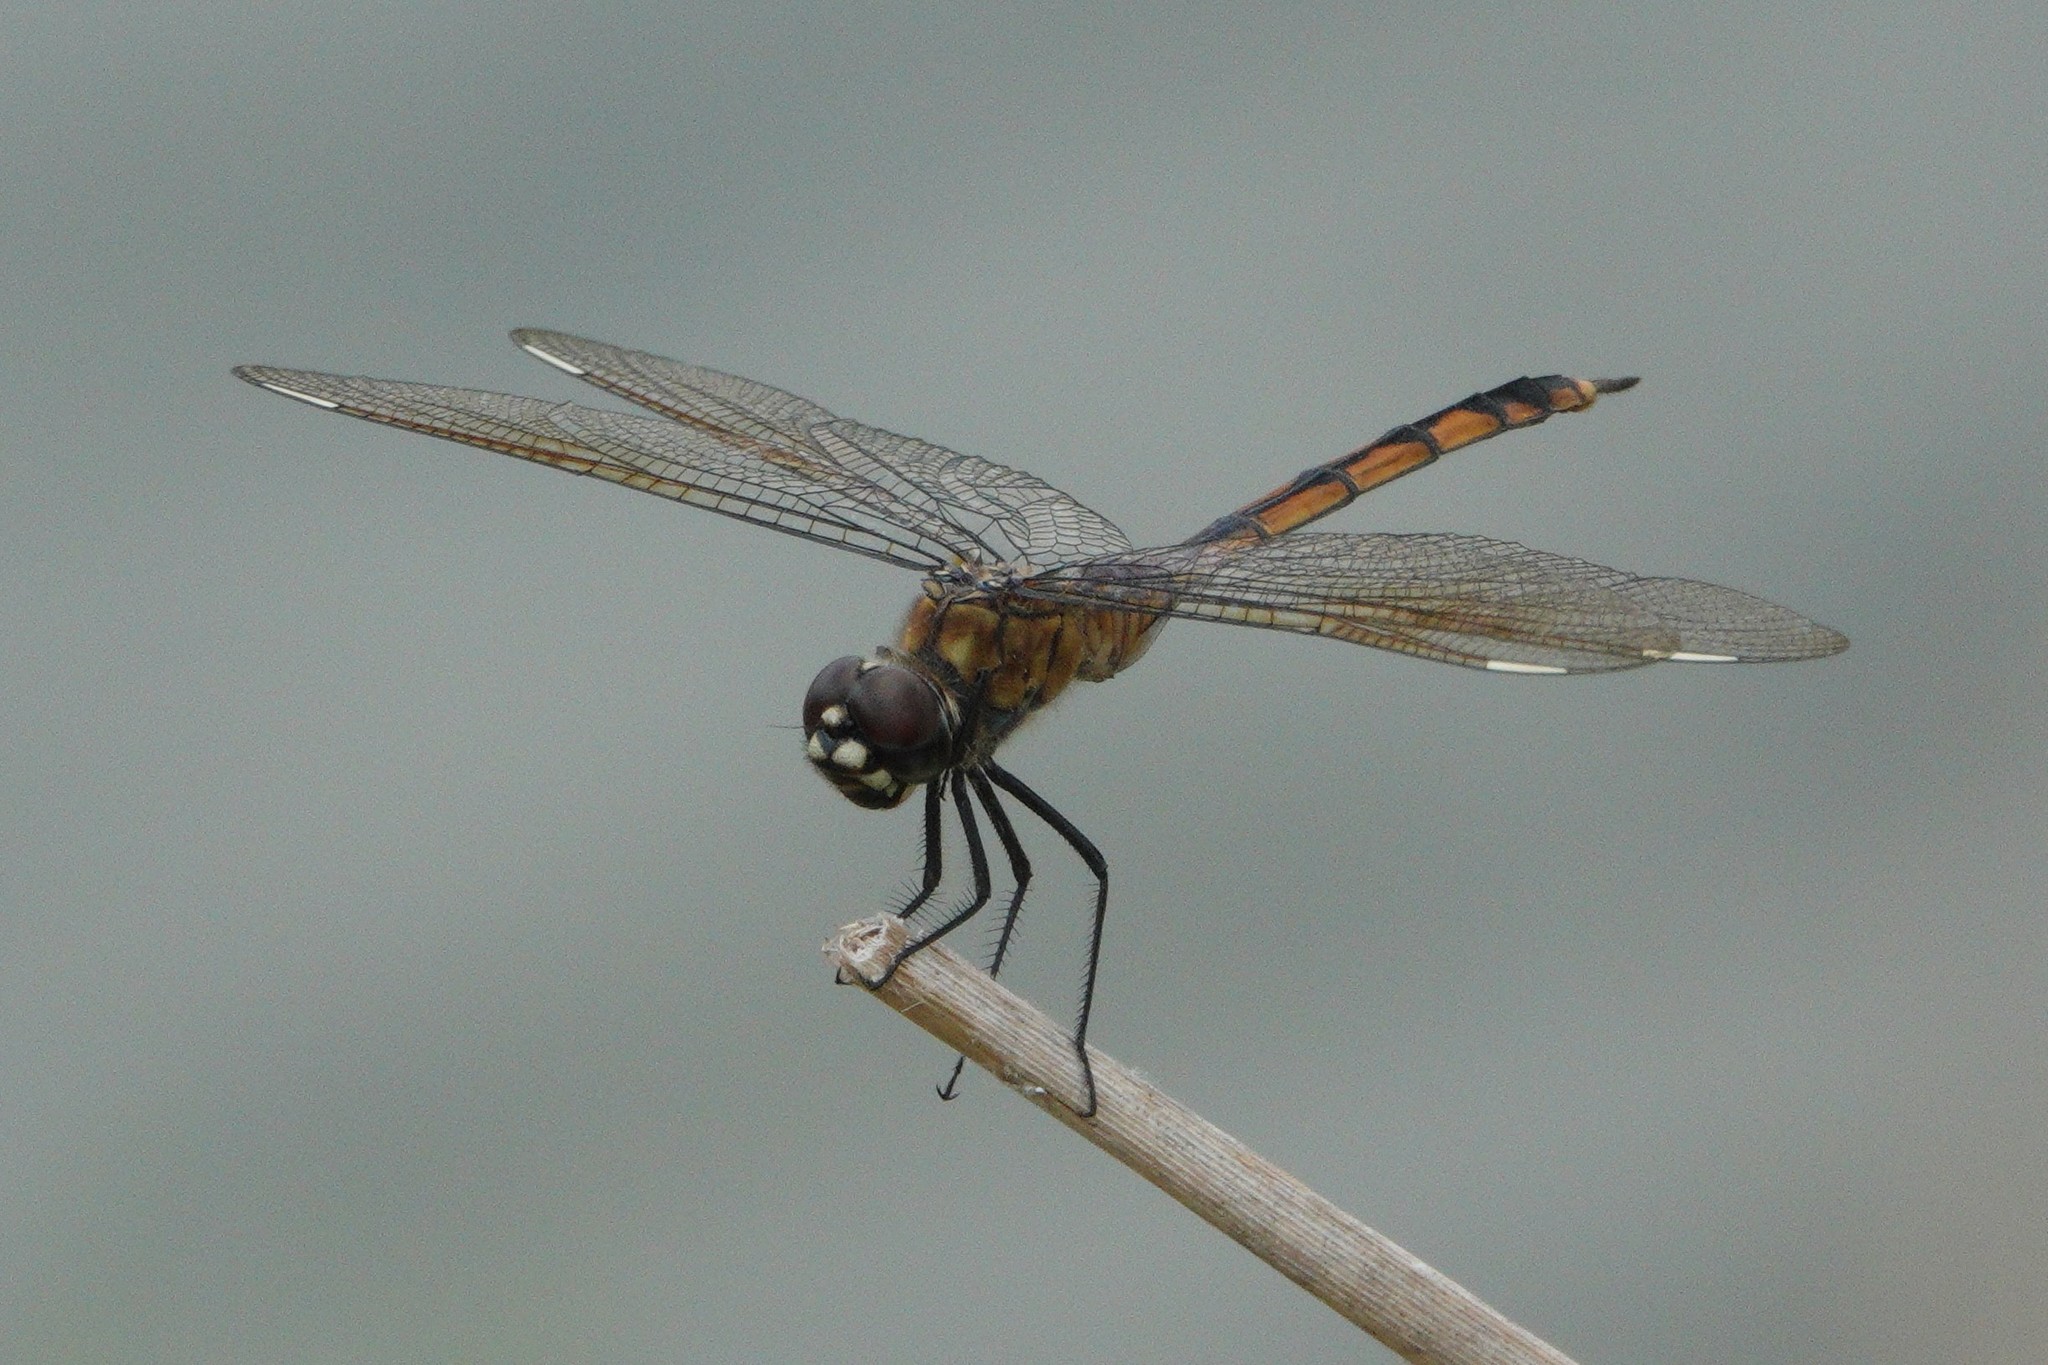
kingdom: Animalia
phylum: Arthropoda
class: Insecta
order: Odonata
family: Libellulidae
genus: Brachymesia
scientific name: Brachymesia gravida
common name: Four-spotted pennant
